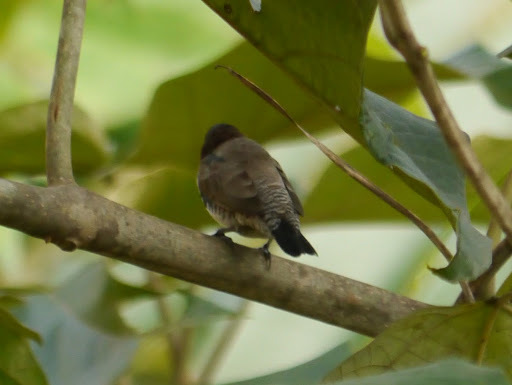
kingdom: Animalia
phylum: Chordata
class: Aves
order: Passeriformes
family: Estrildidae
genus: Lonchura
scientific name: Lonchura cucullata
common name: Bronze mannikin
